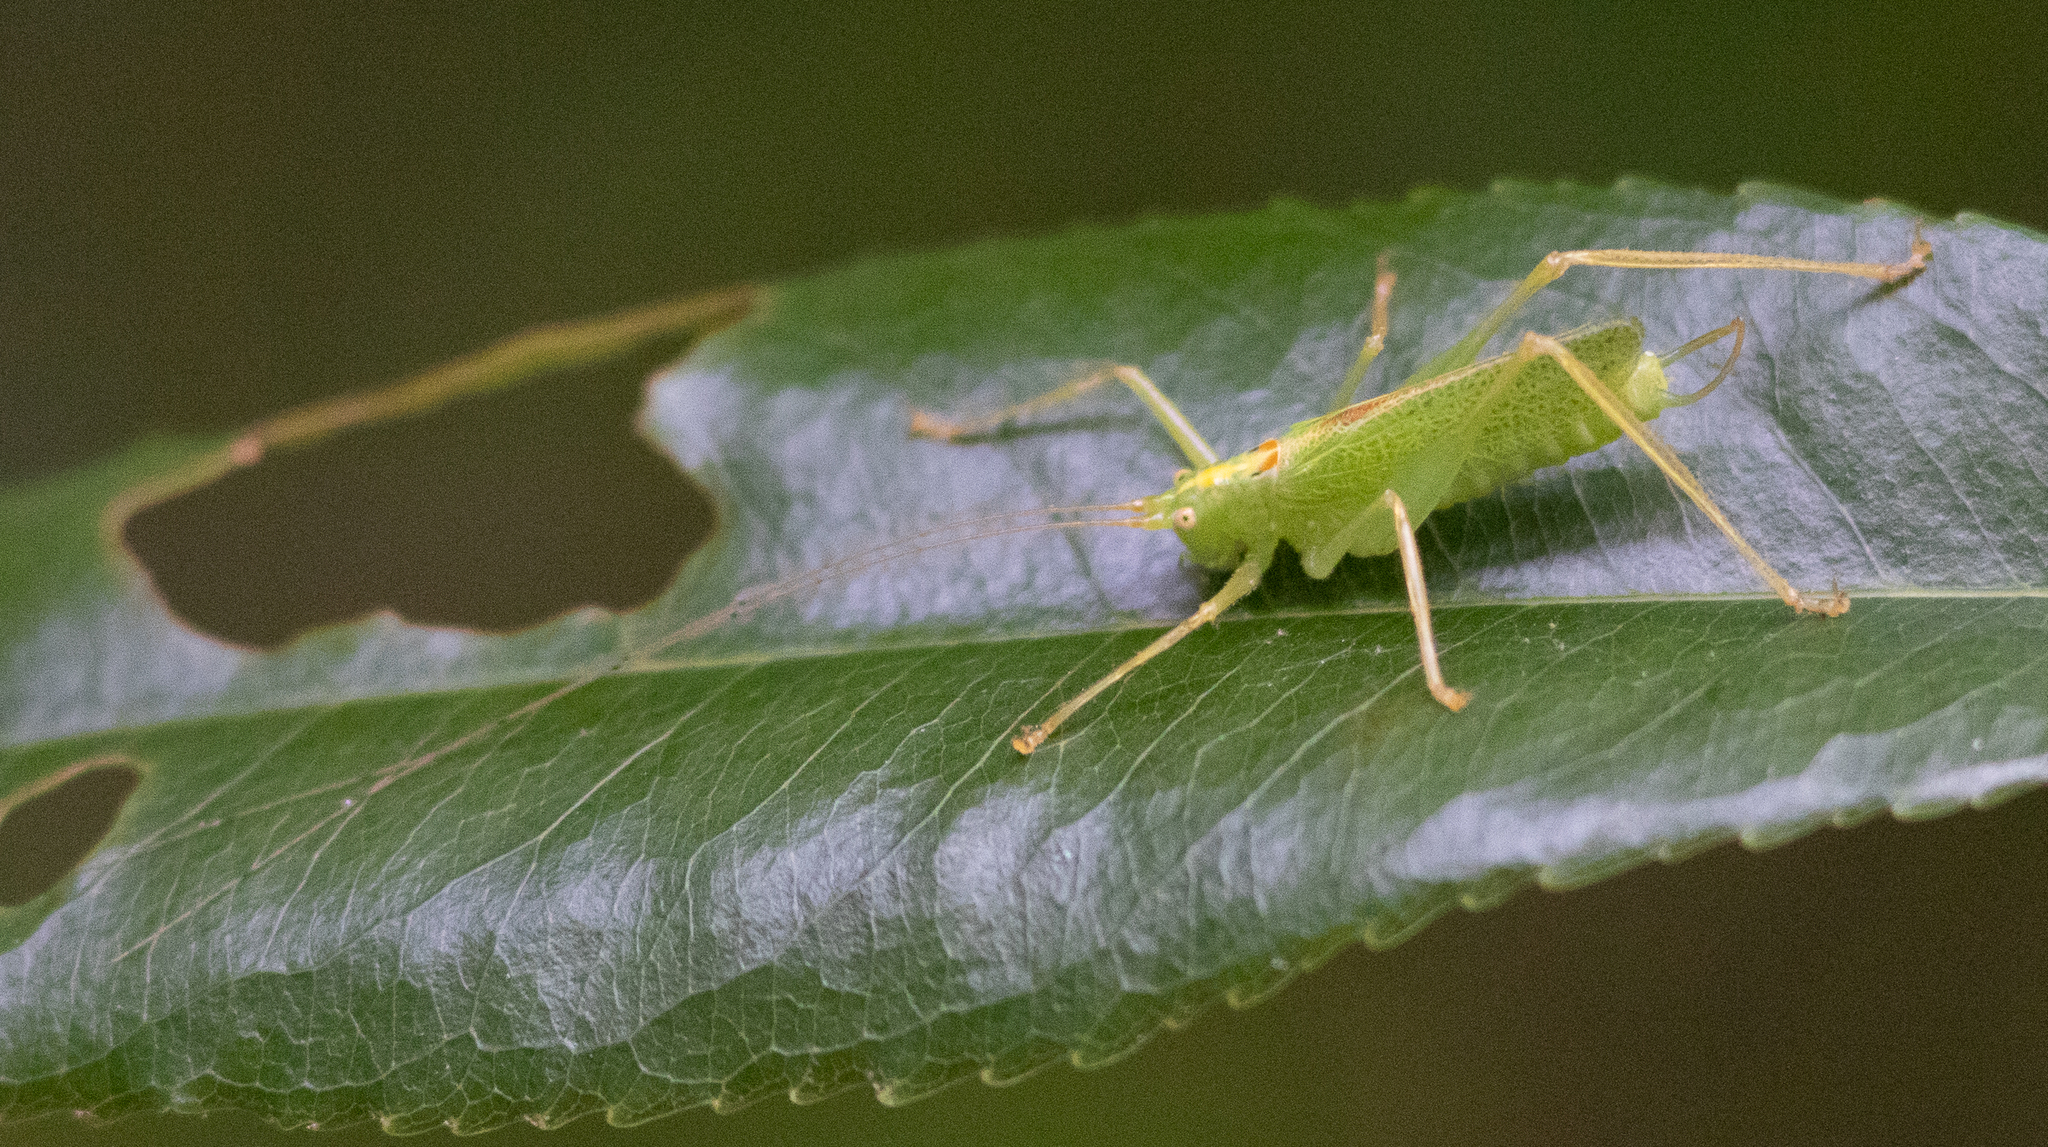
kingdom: Animalia
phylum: Arthropoda
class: Insecta
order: Orthoptera
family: Tettigoniidae
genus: Meconema
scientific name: Meconema thalassinum
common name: Oak bush-cricket
